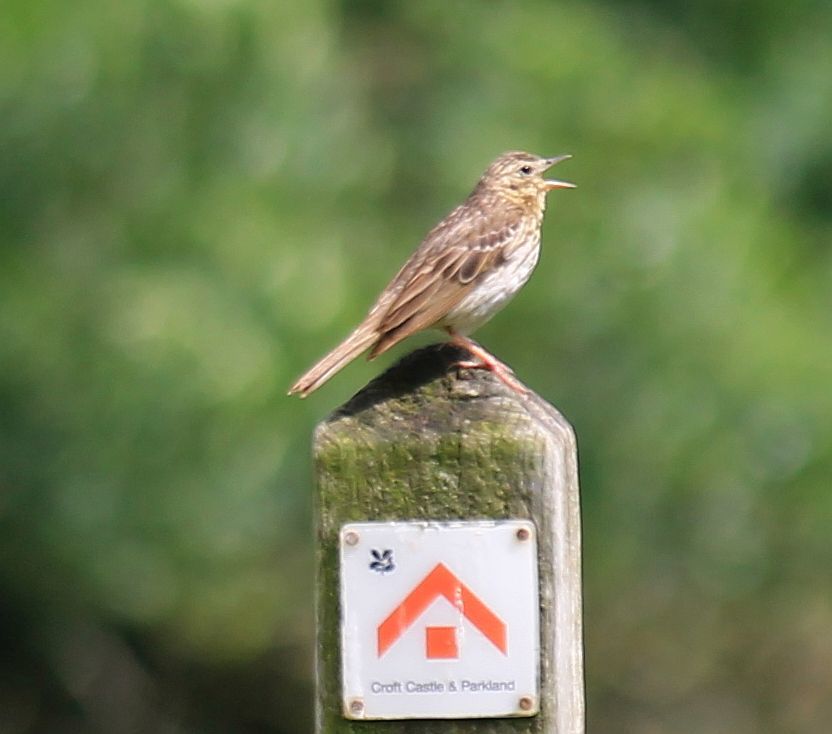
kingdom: Animalia
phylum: Chordata
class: Aves
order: Passeriformes
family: Motacillidae
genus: Anthus
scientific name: Anthus trivialis
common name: Tree pipit
